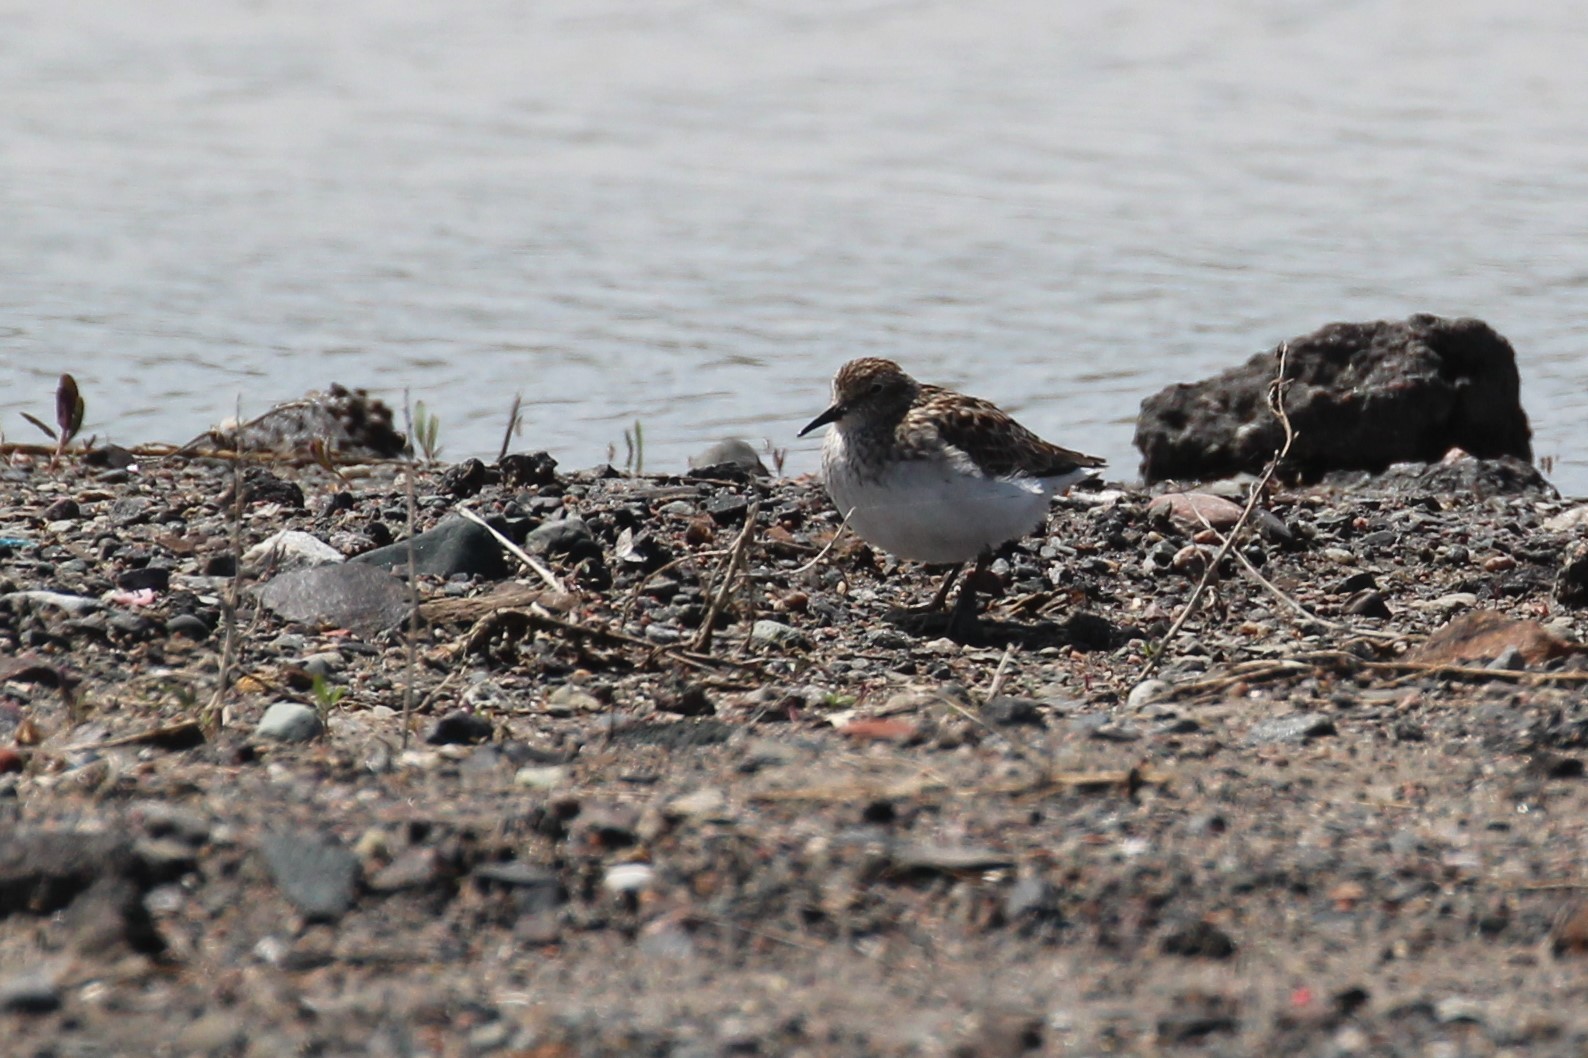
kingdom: Animalia
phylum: Chordata
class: Aves
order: Charadriiformes
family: Scolopacidae
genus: Calidris
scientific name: Calidris minutilla
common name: Least sandpiper
